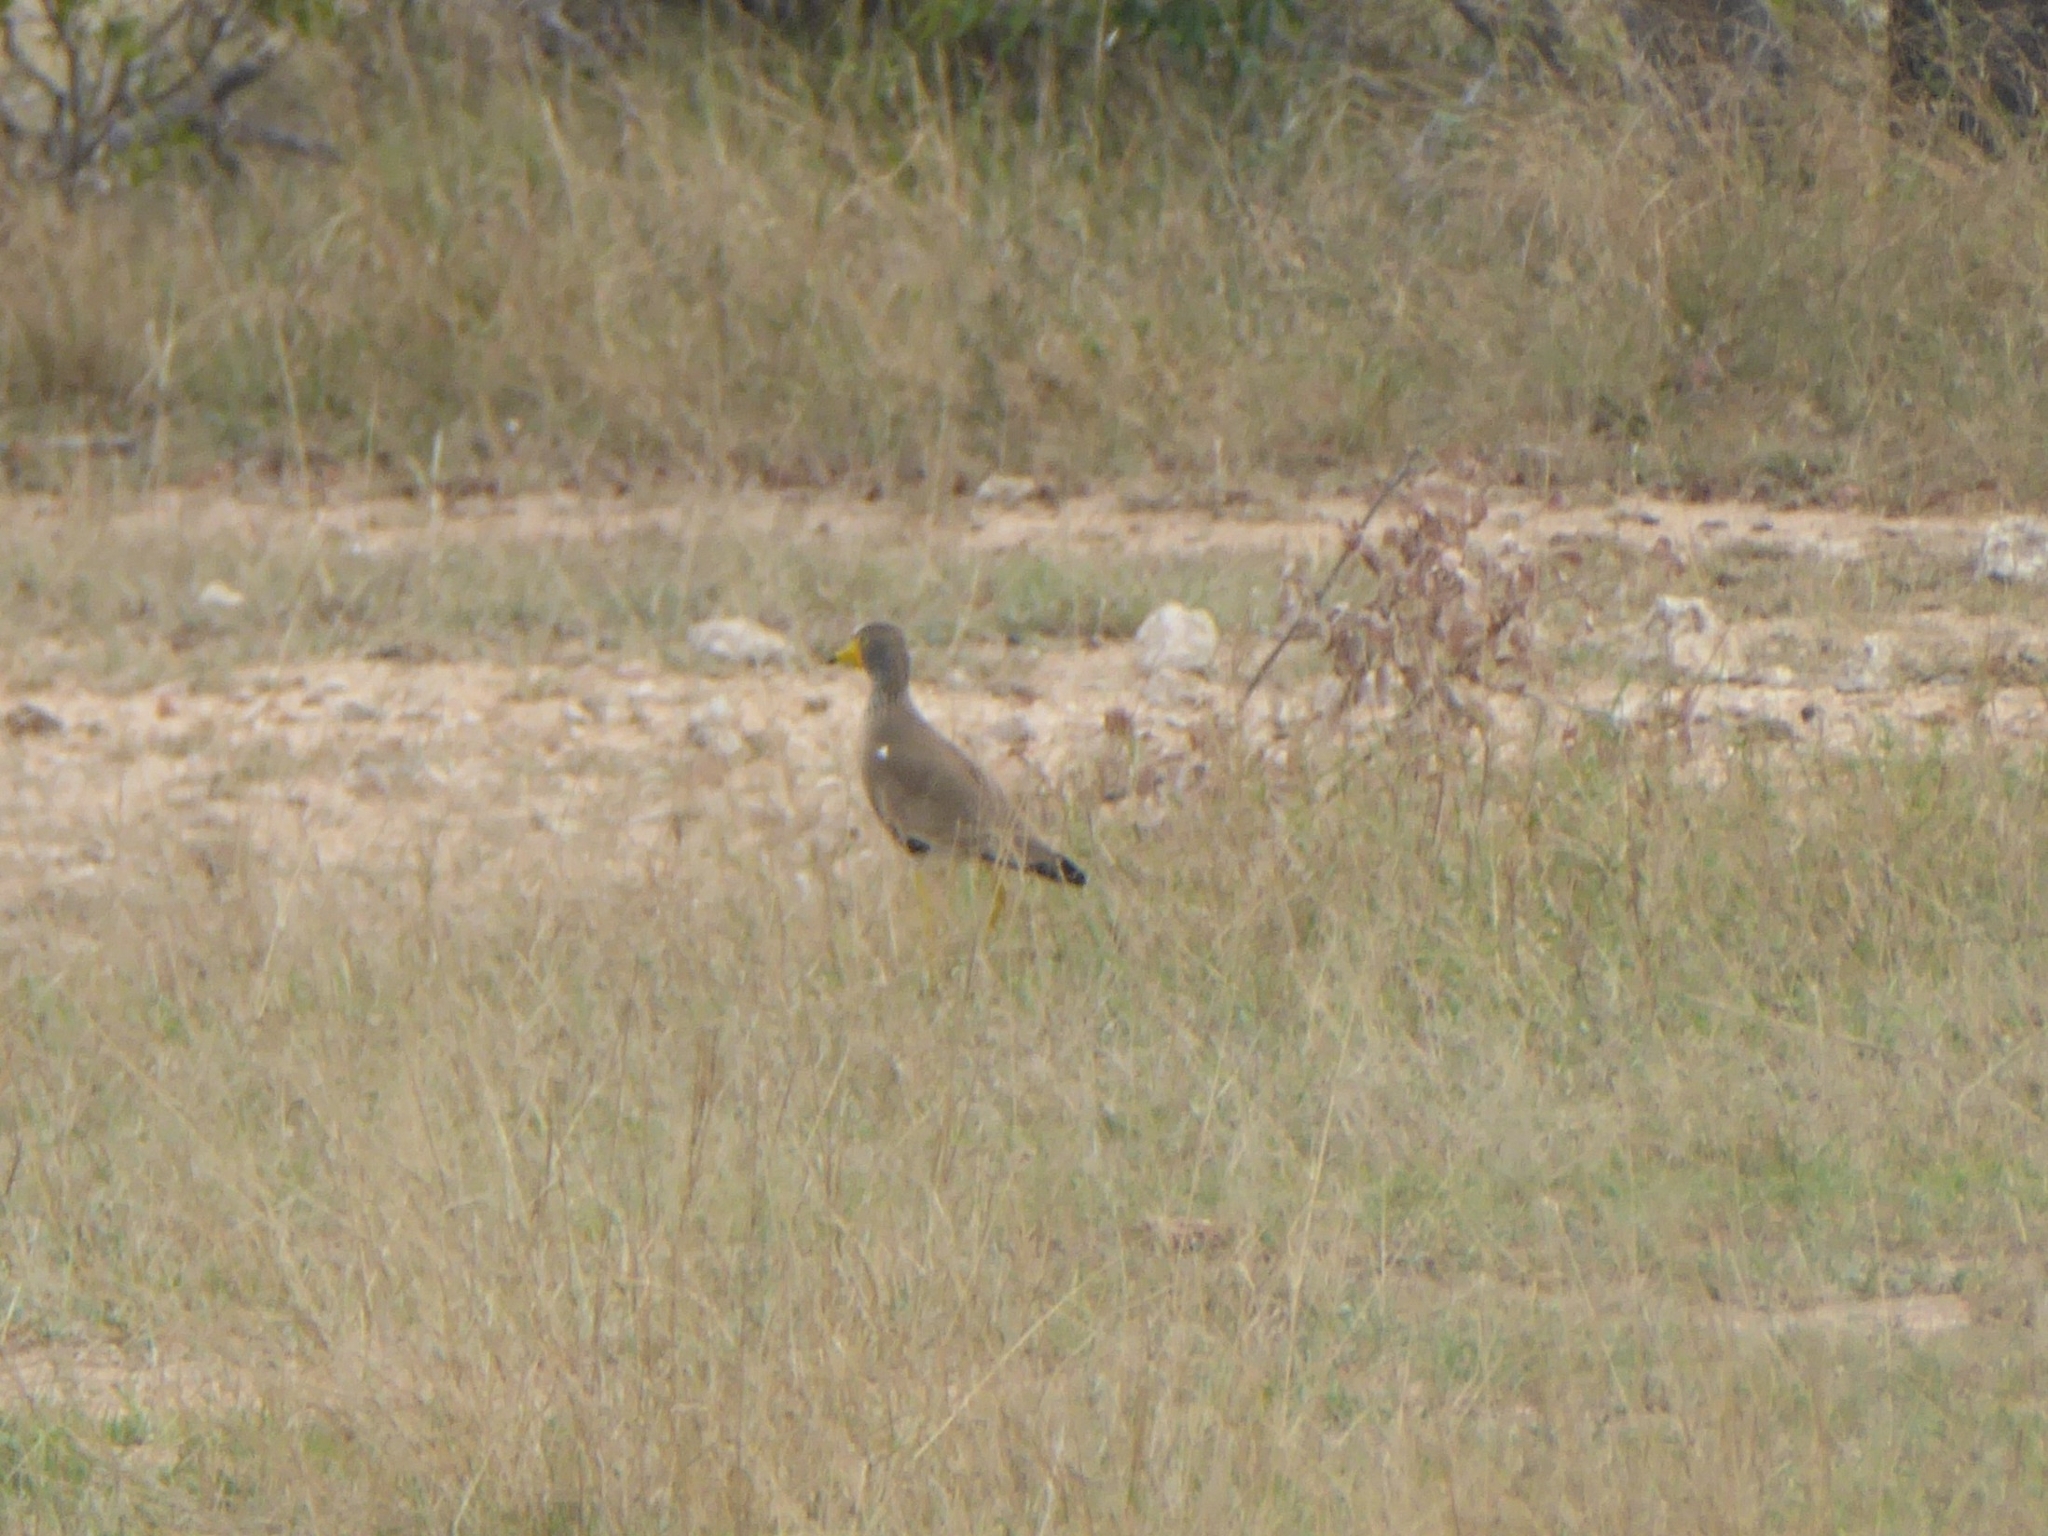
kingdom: Animalia
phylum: Chordata
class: Aves
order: Charadriiformes
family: Charadriidae
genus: Vanellus
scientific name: Vanellus senegallus
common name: African wattled lapwing
